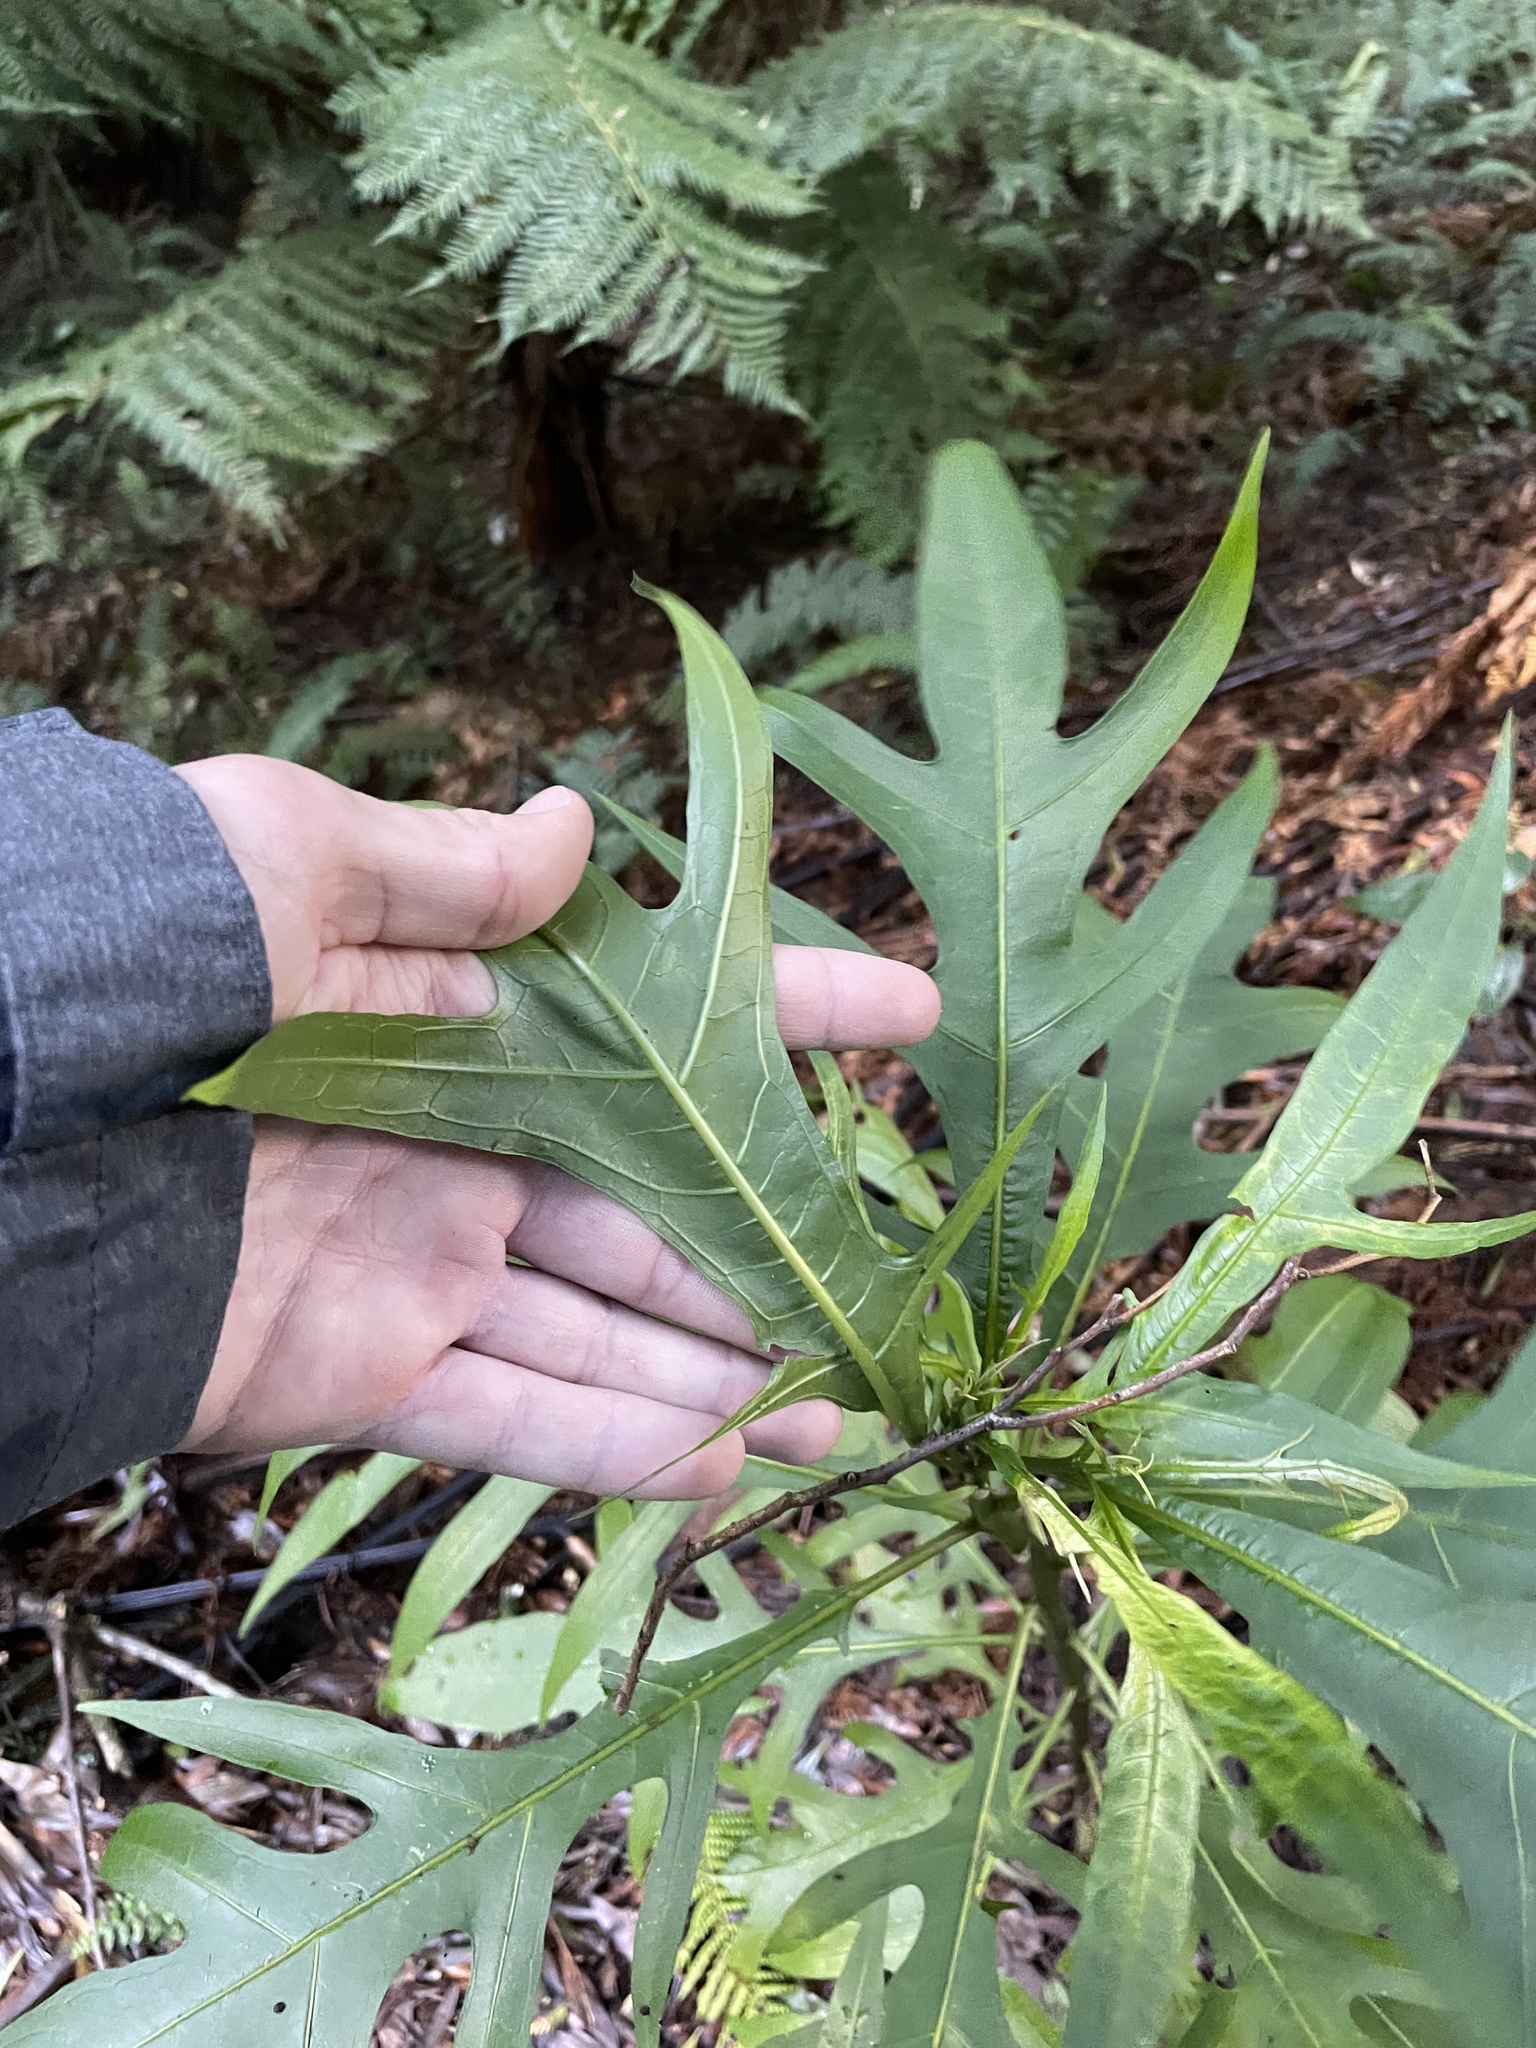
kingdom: Plantae
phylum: Tracheophyta
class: Magnoliopsida
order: Solanales
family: Solanaceae
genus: Solanum
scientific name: Solanum
